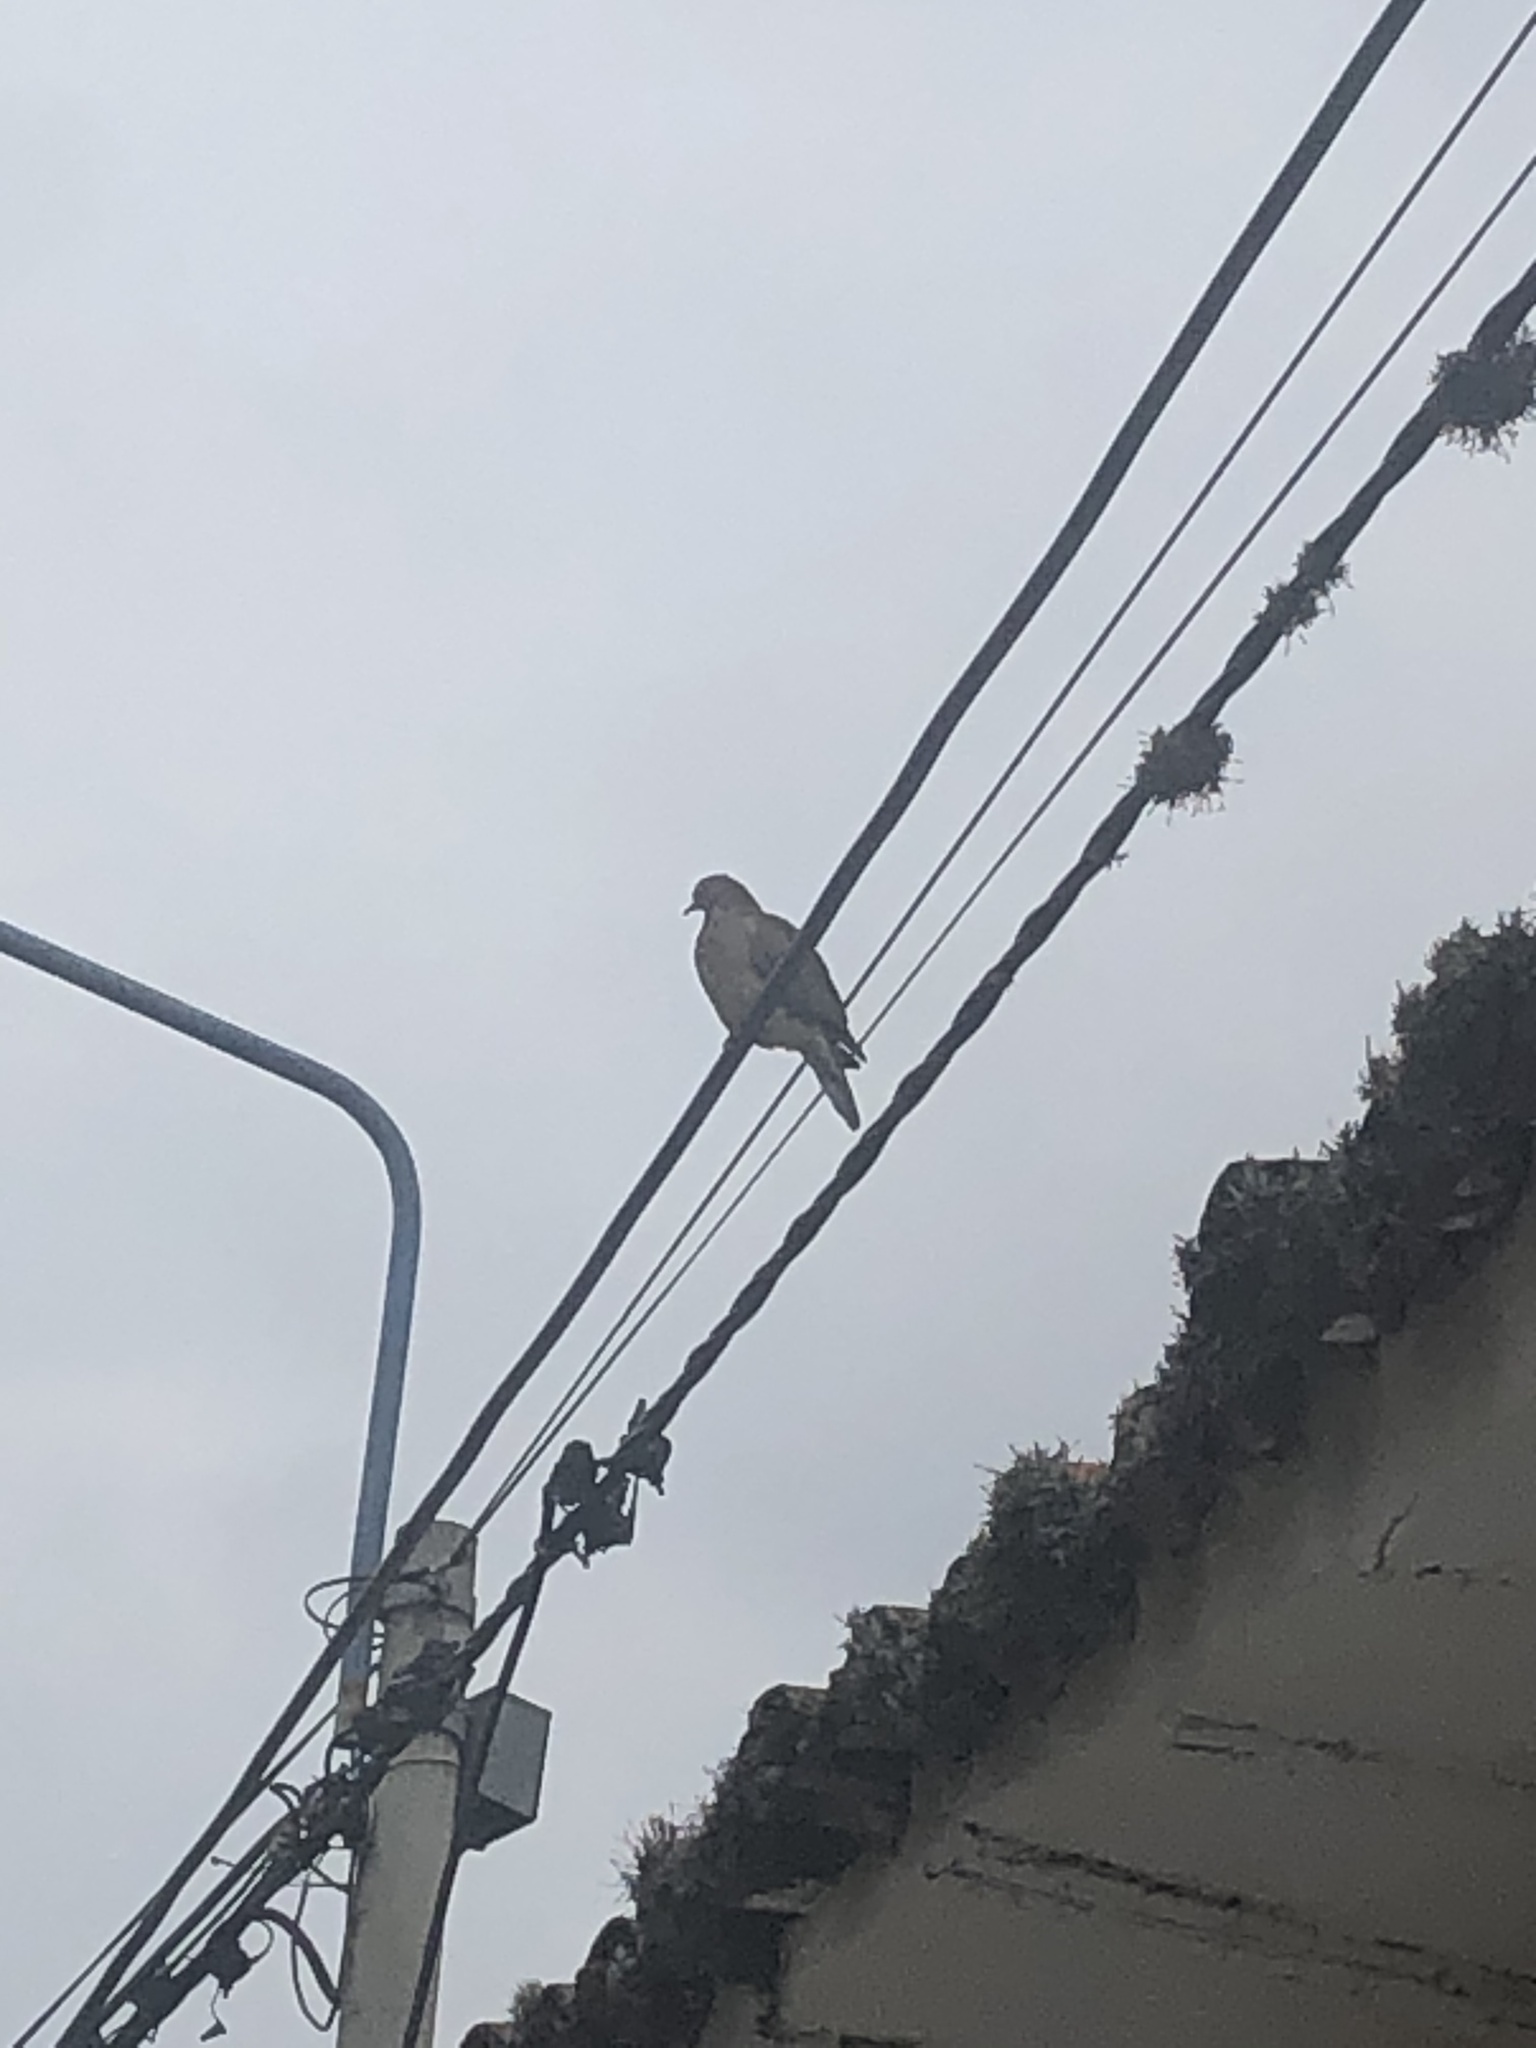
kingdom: Animalia
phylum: Chordata
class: Aves
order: Columbiformes
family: Columbidae
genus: Zenaida
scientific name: Zenaida auriculata
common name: Eared dove
